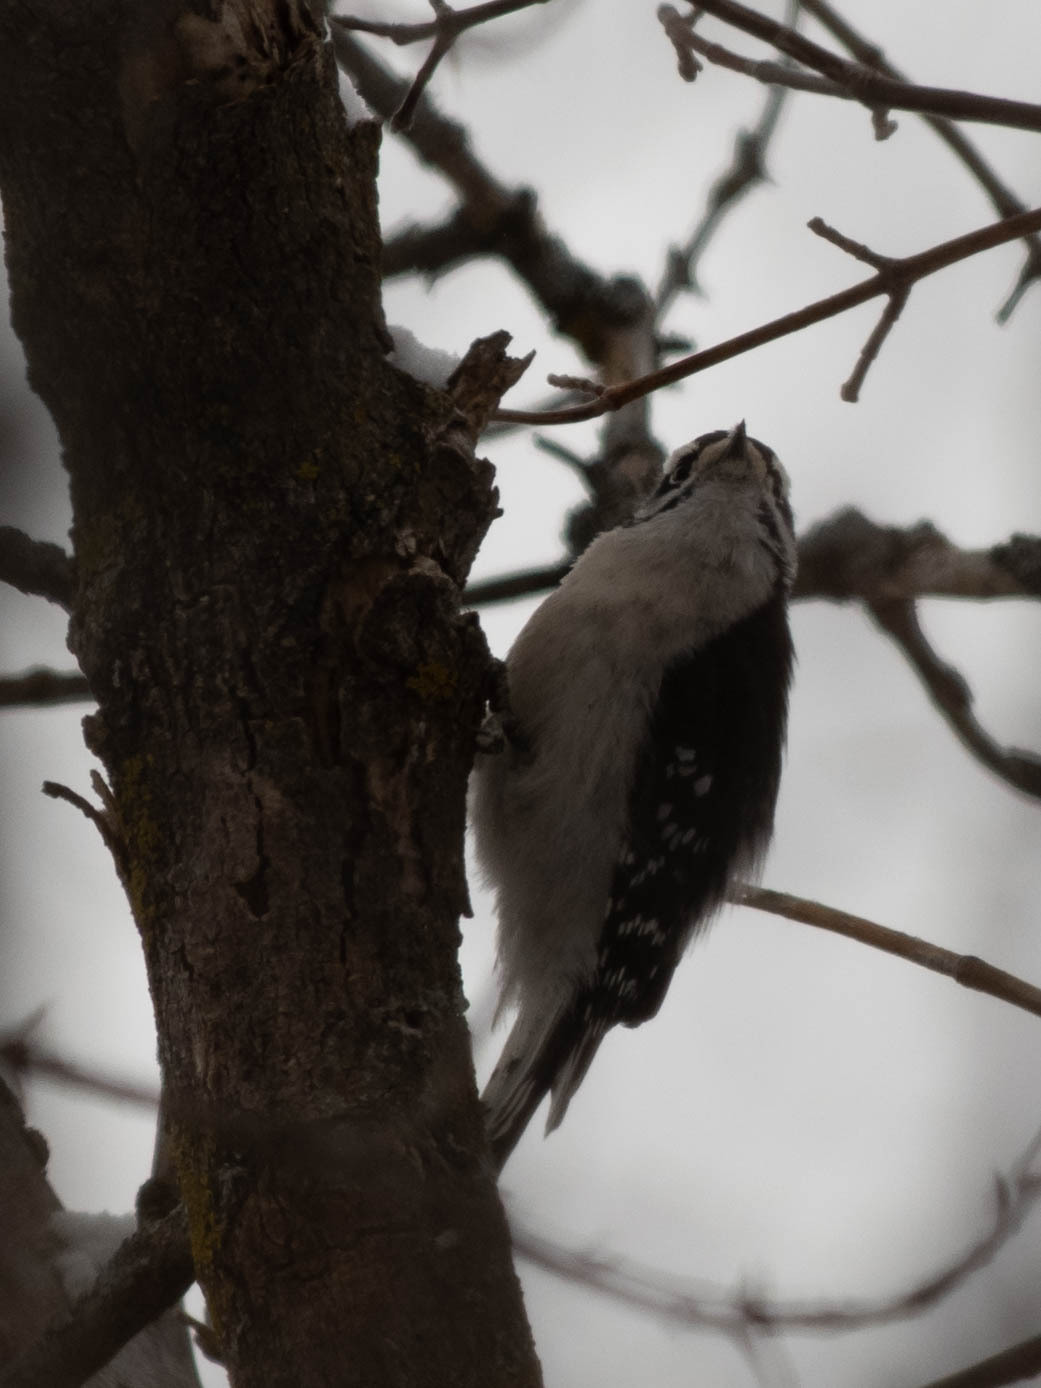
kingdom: Animalia
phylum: Chordata
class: Aves
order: Piciformes
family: Picidae
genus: Dryobates
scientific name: Dryobates pubescens
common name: Downy woodpecker
